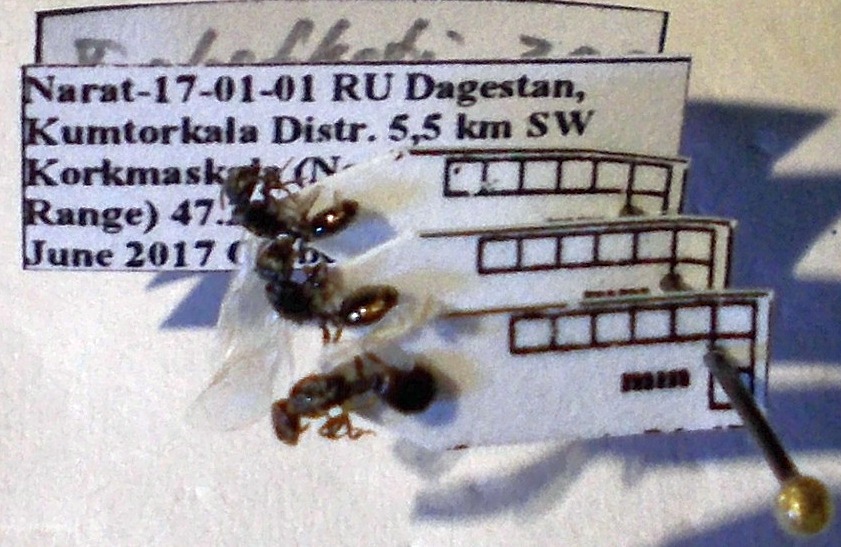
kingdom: Animalia
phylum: Arthropoda
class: Insecta
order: Hymenoptera
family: Formicidae
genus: Tetramorium
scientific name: Tetramorium chefketi
